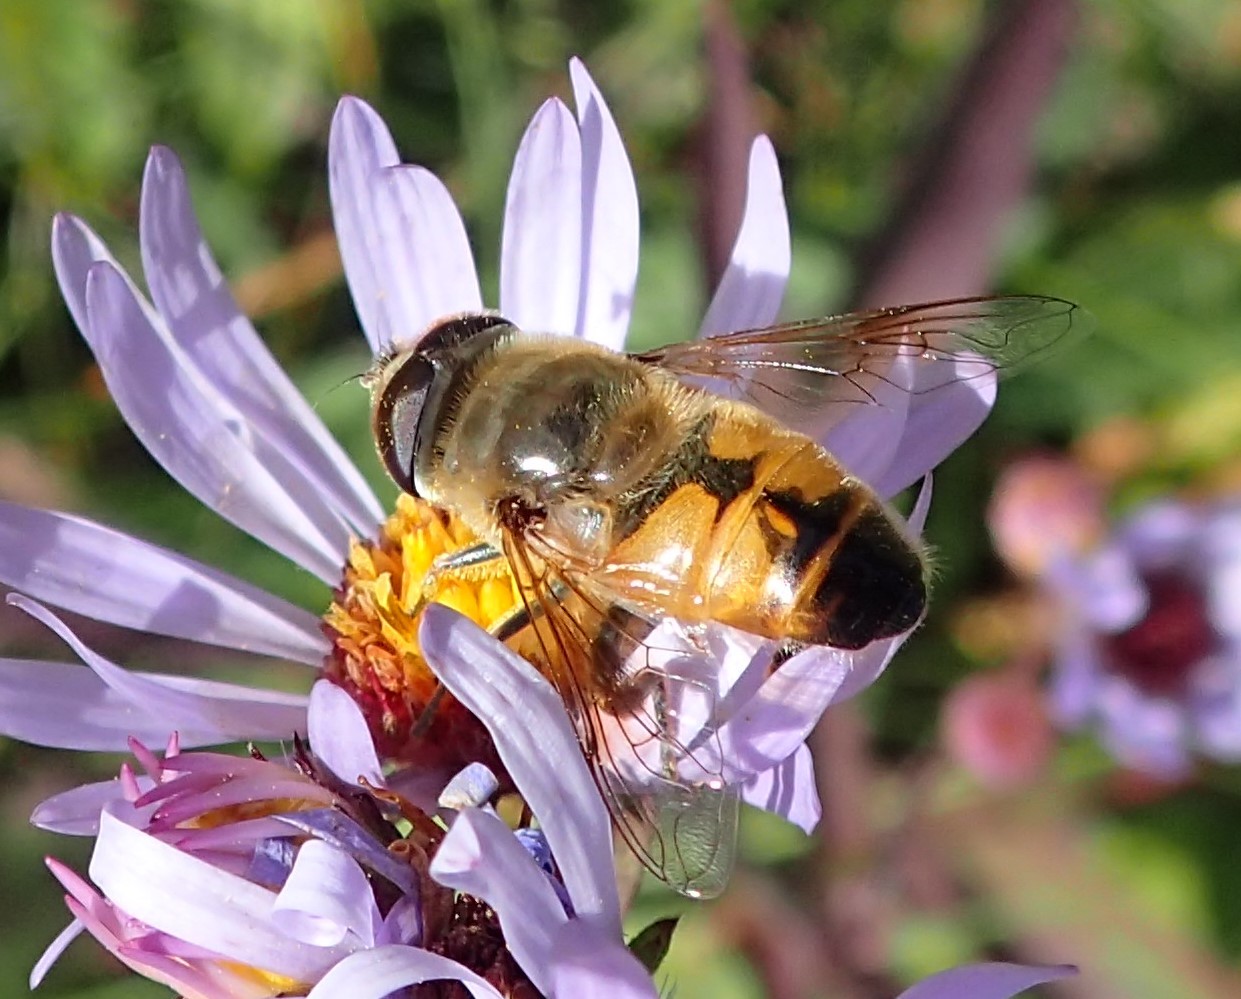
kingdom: Animalia
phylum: Arthropoda
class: Insecta
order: Diptera
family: Syrphidae
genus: Eristalis
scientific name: Eristalis tenax
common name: Drone fly
